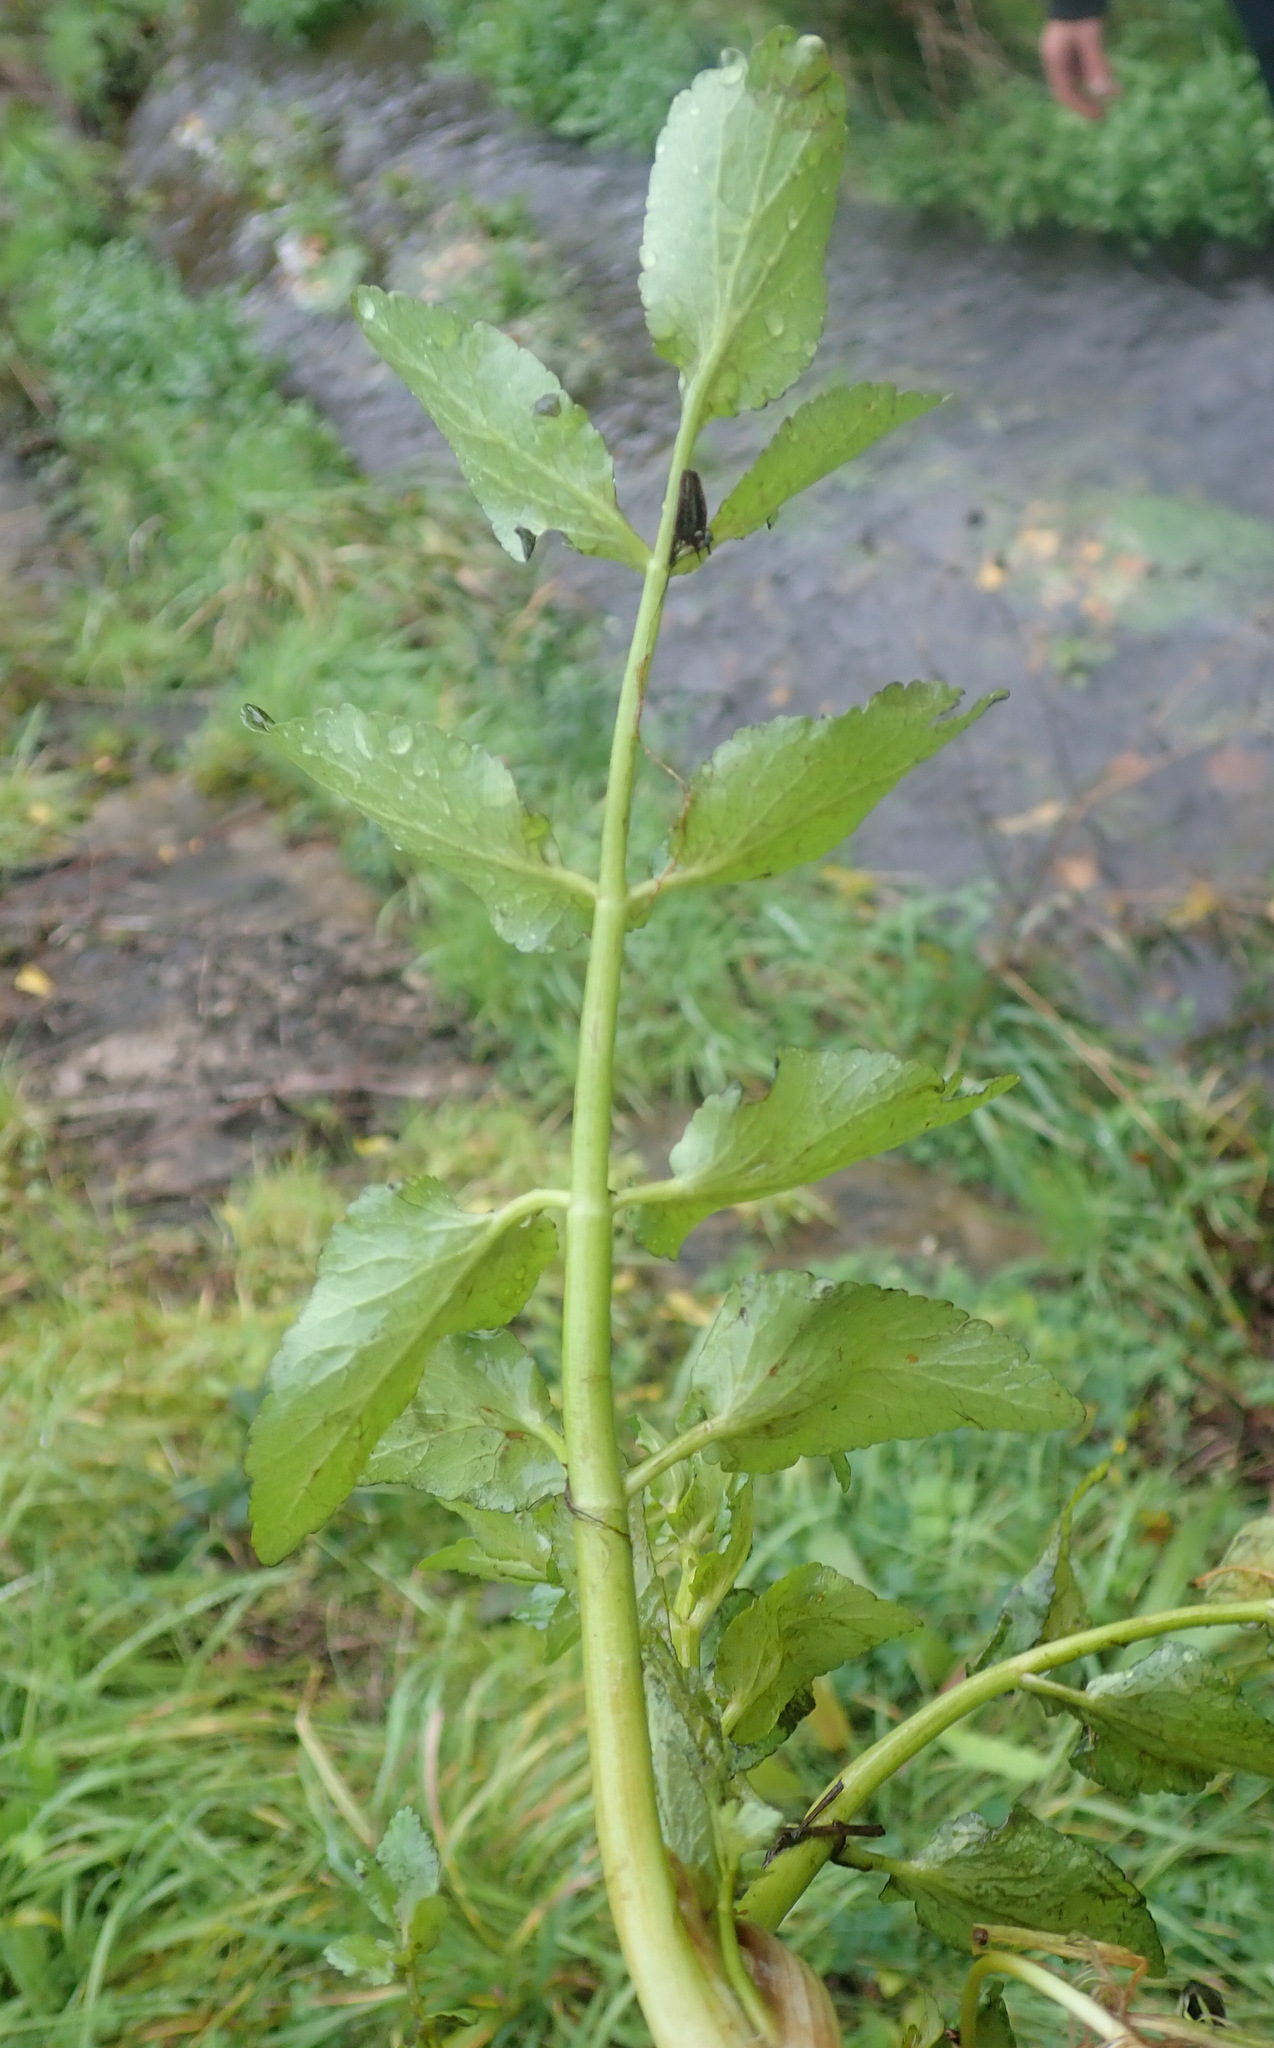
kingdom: Plantae
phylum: Tracheophyta
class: Magnoliopsida
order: Apiales
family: Apiaceae
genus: Helosciadium
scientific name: Helosciadium nodiflorum
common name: Fool's-watercress
